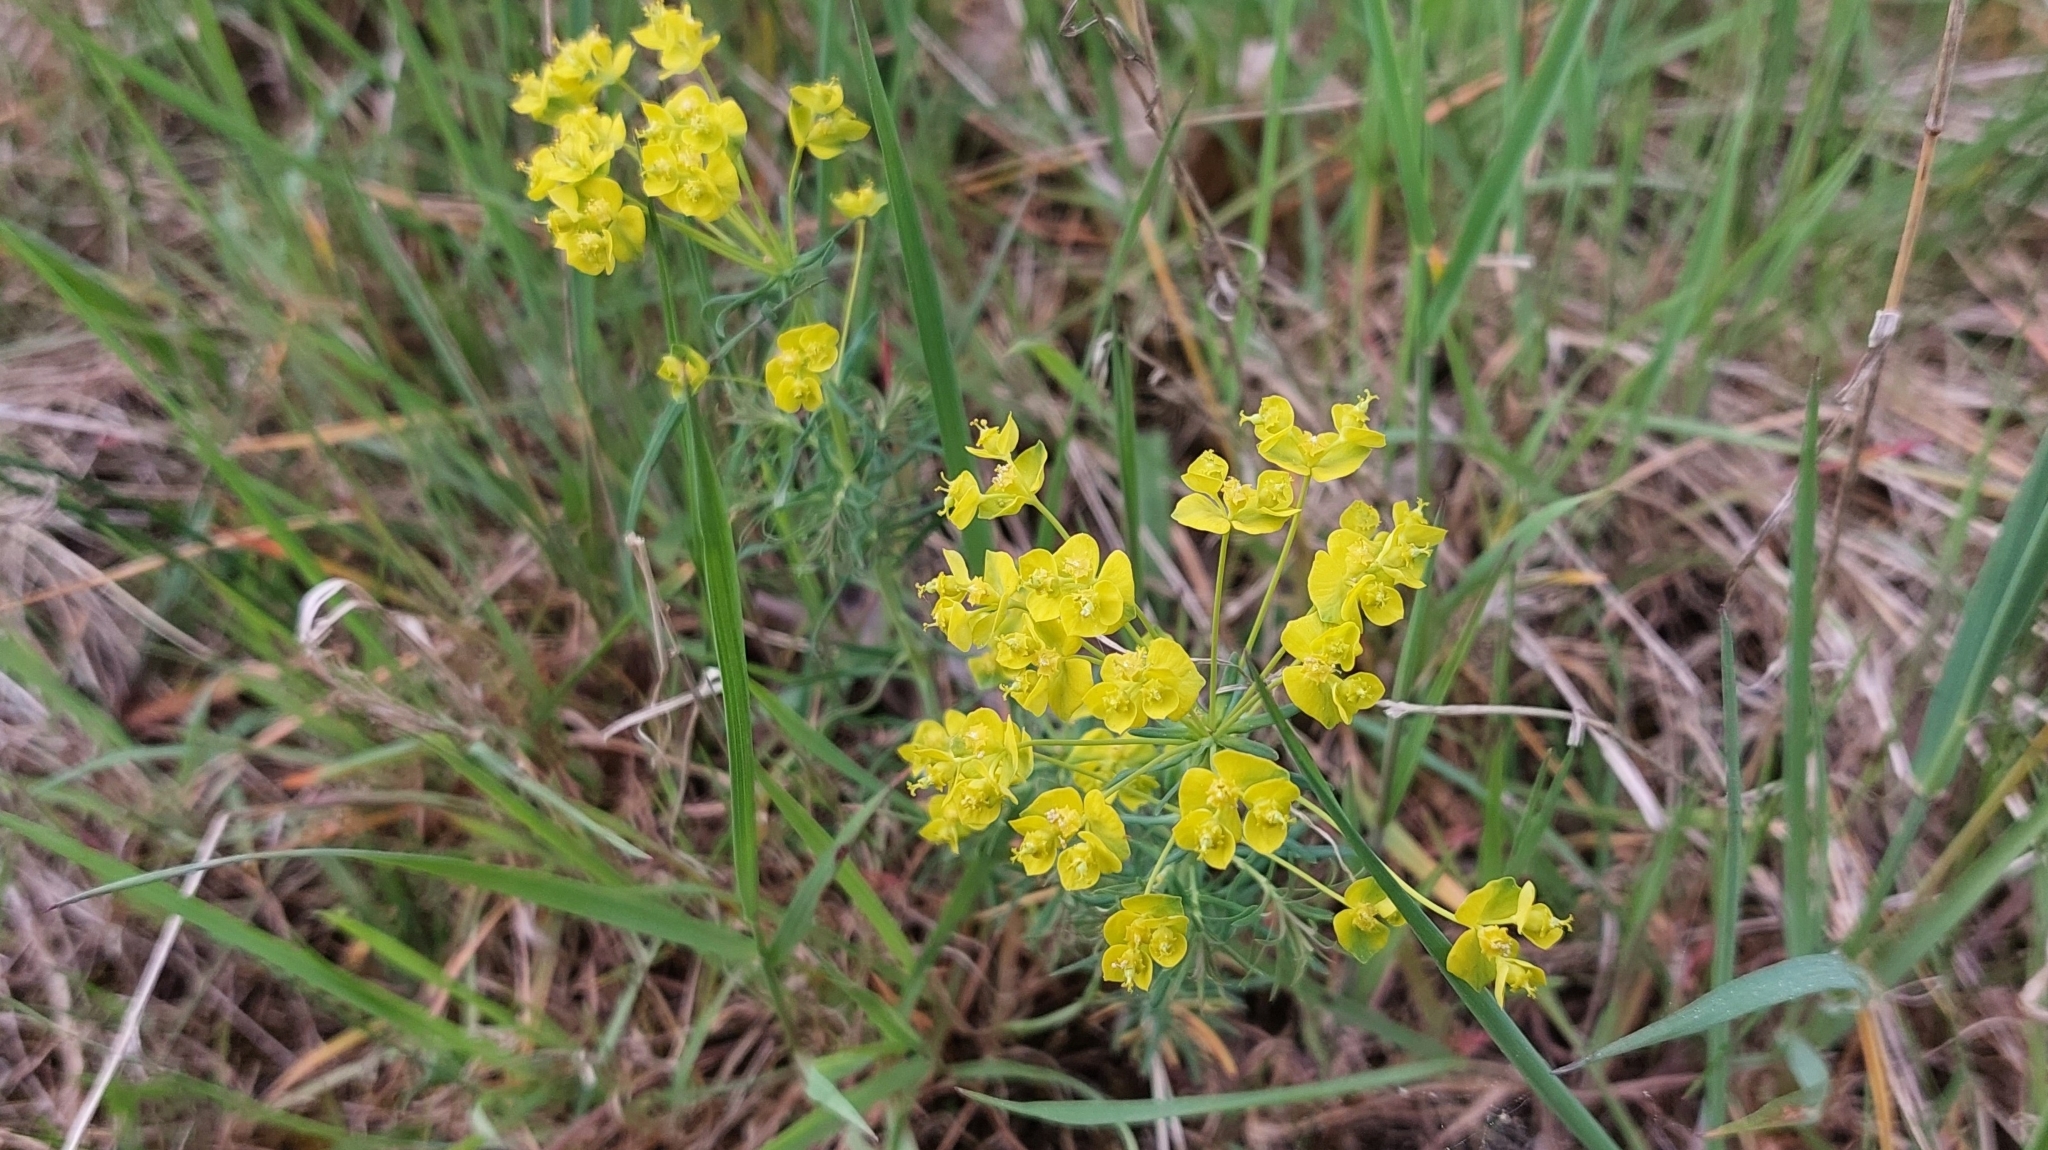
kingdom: Plantae
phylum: Tracheophyta
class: Magnoliopsida
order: Malpighiales
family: Euphorbiaceae
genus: Euphorbia
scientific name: Euphorbia cyparissias
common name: Cypress spurge
